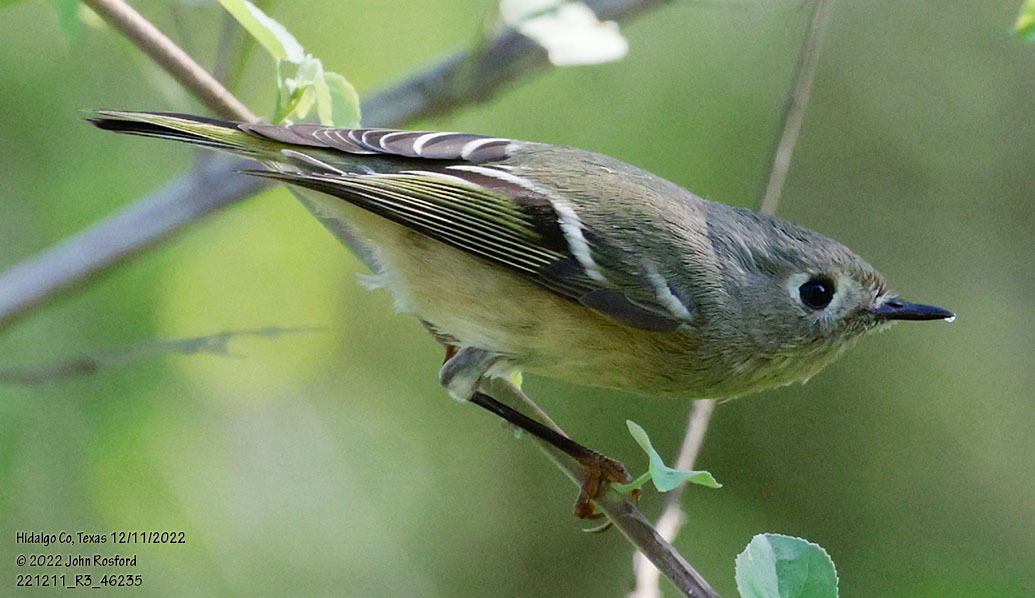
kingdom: Animalia
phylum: Chordata
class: Aves
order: Passeriformes
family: Regulidae
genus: Regulus
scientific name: Regulus calendula
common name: Ruby-crowned kinglet
